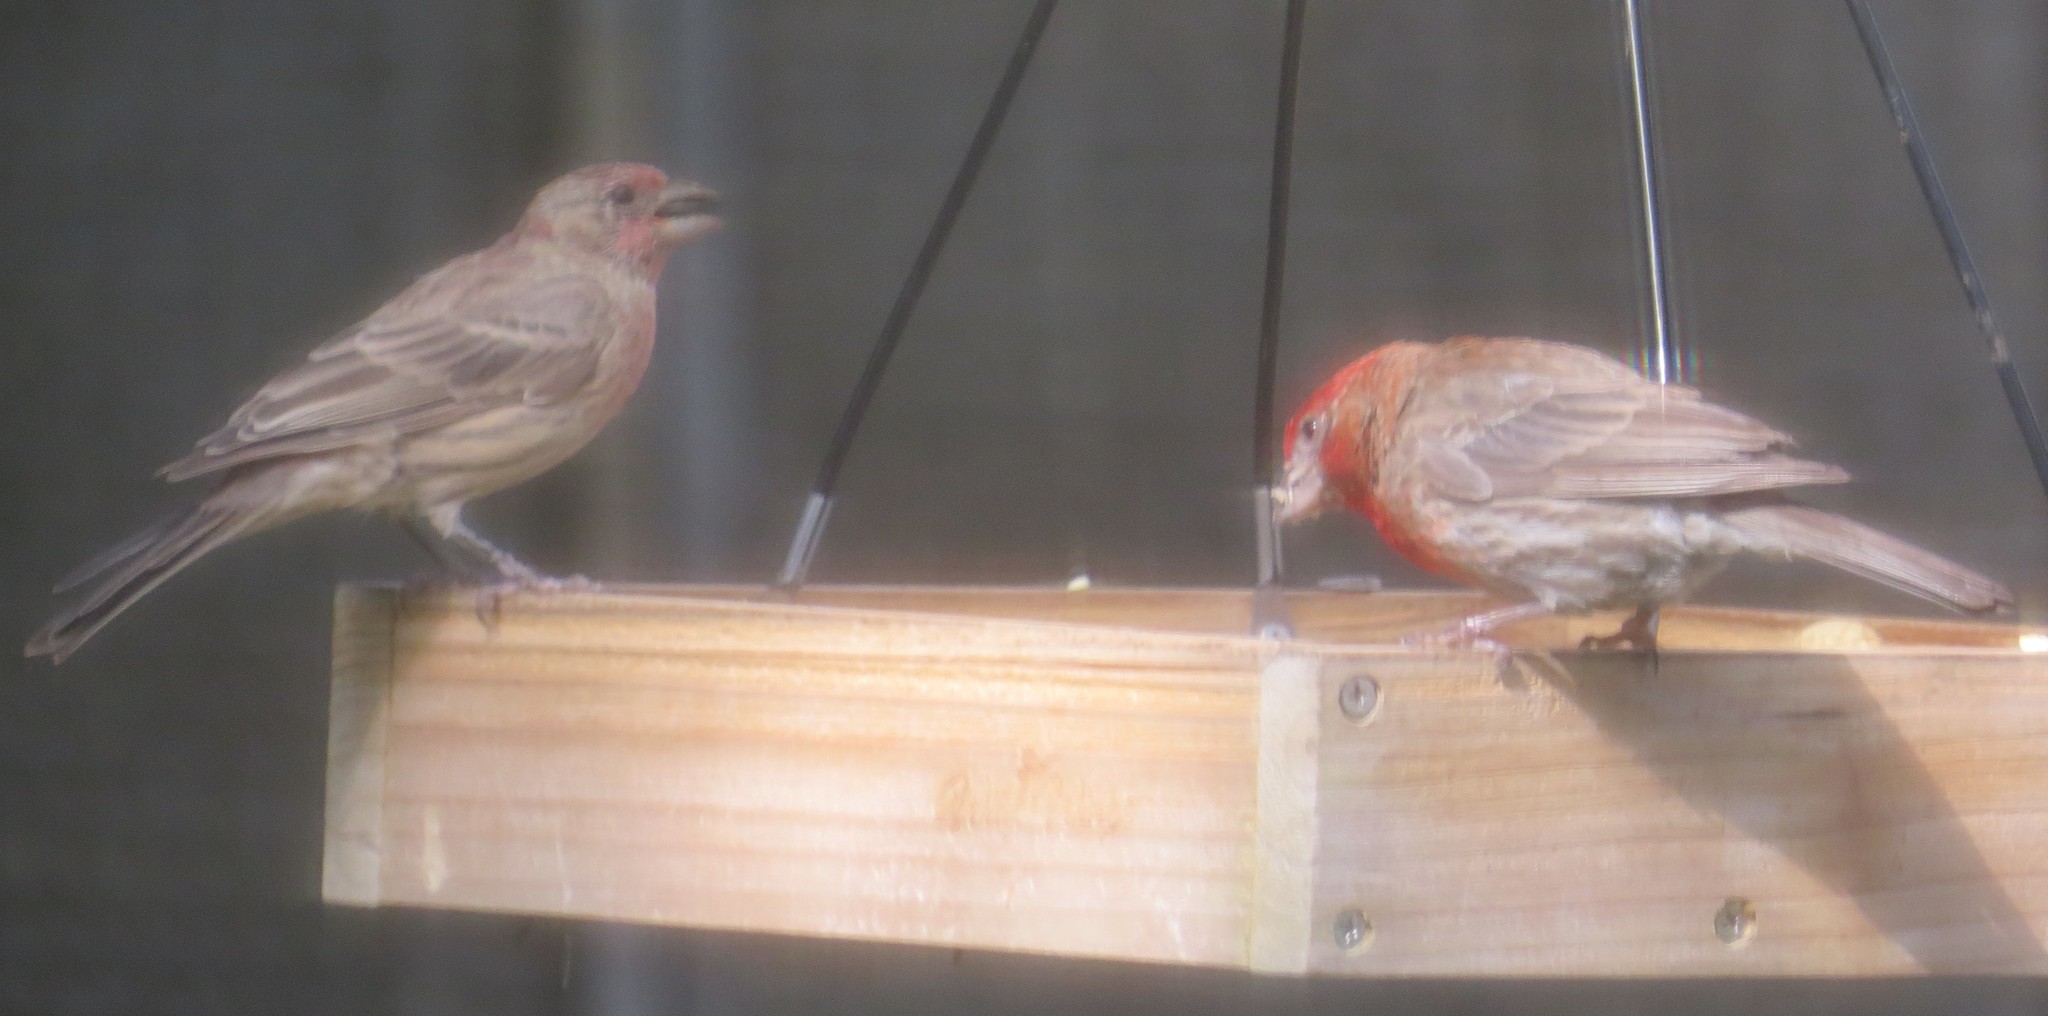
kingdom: Animalia
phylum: Chordata
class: Aves
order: Passeriformes
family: Fringillidae
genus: Haemorhous
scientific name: Haemorhous mexicanus
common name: House finch
